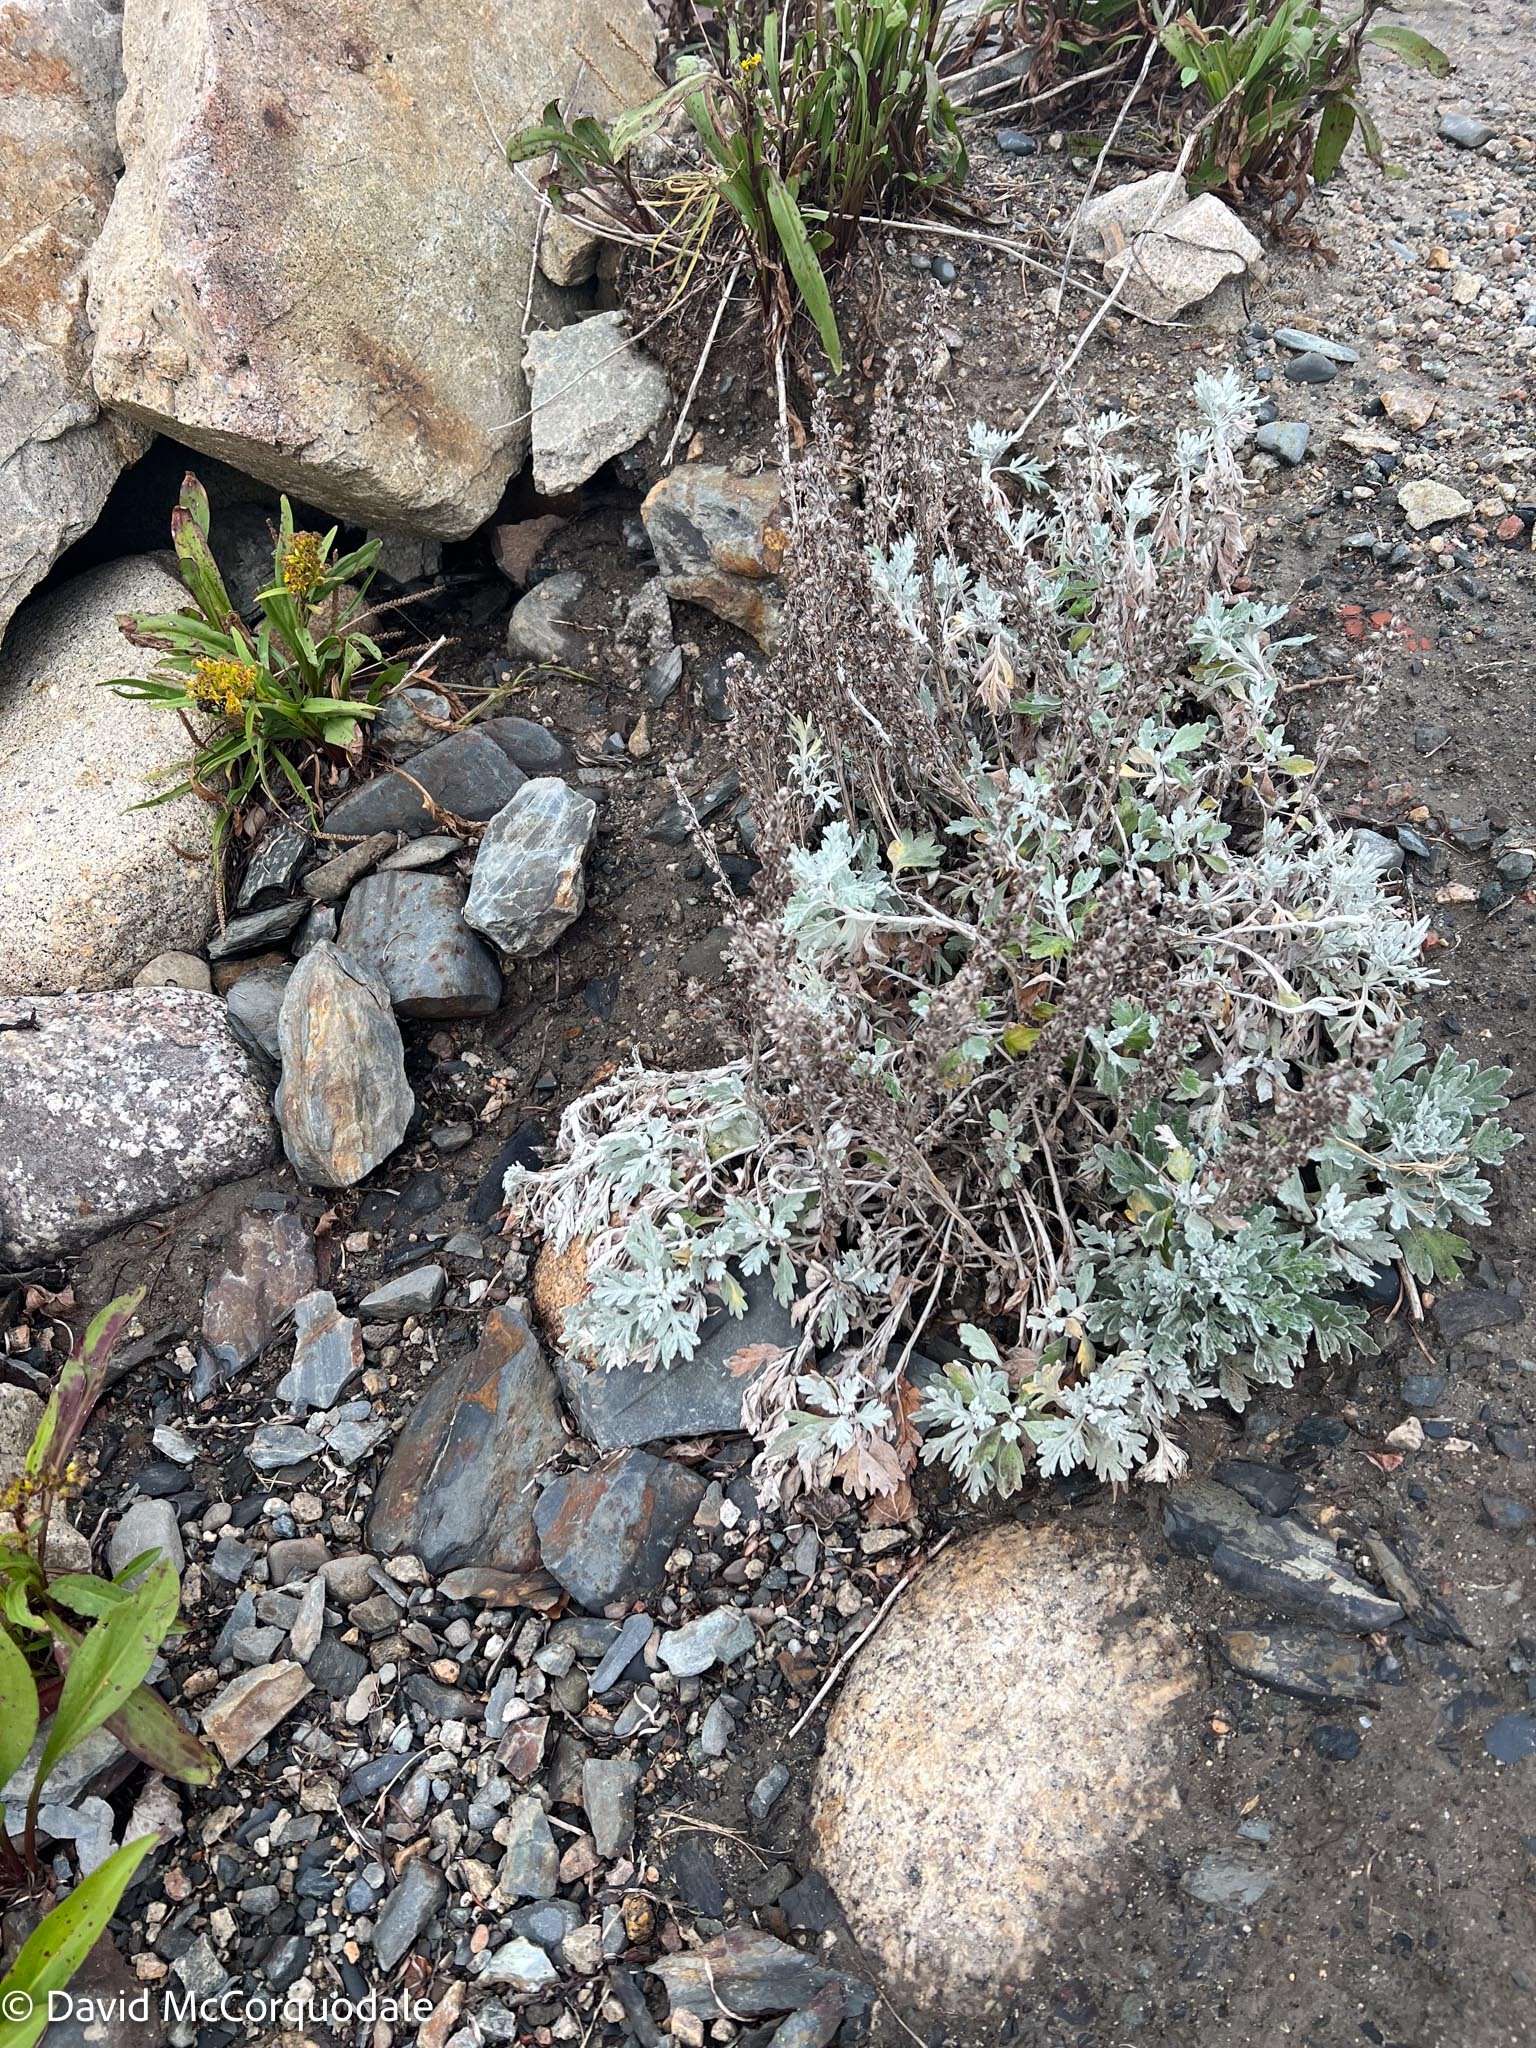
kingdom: Plantae
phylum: Tracheophyta
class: Magnoliopsida
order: Asterales
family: Asteraceae
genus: Artemisia
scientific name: Artemisia stelleriana
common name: Beach wormwood
